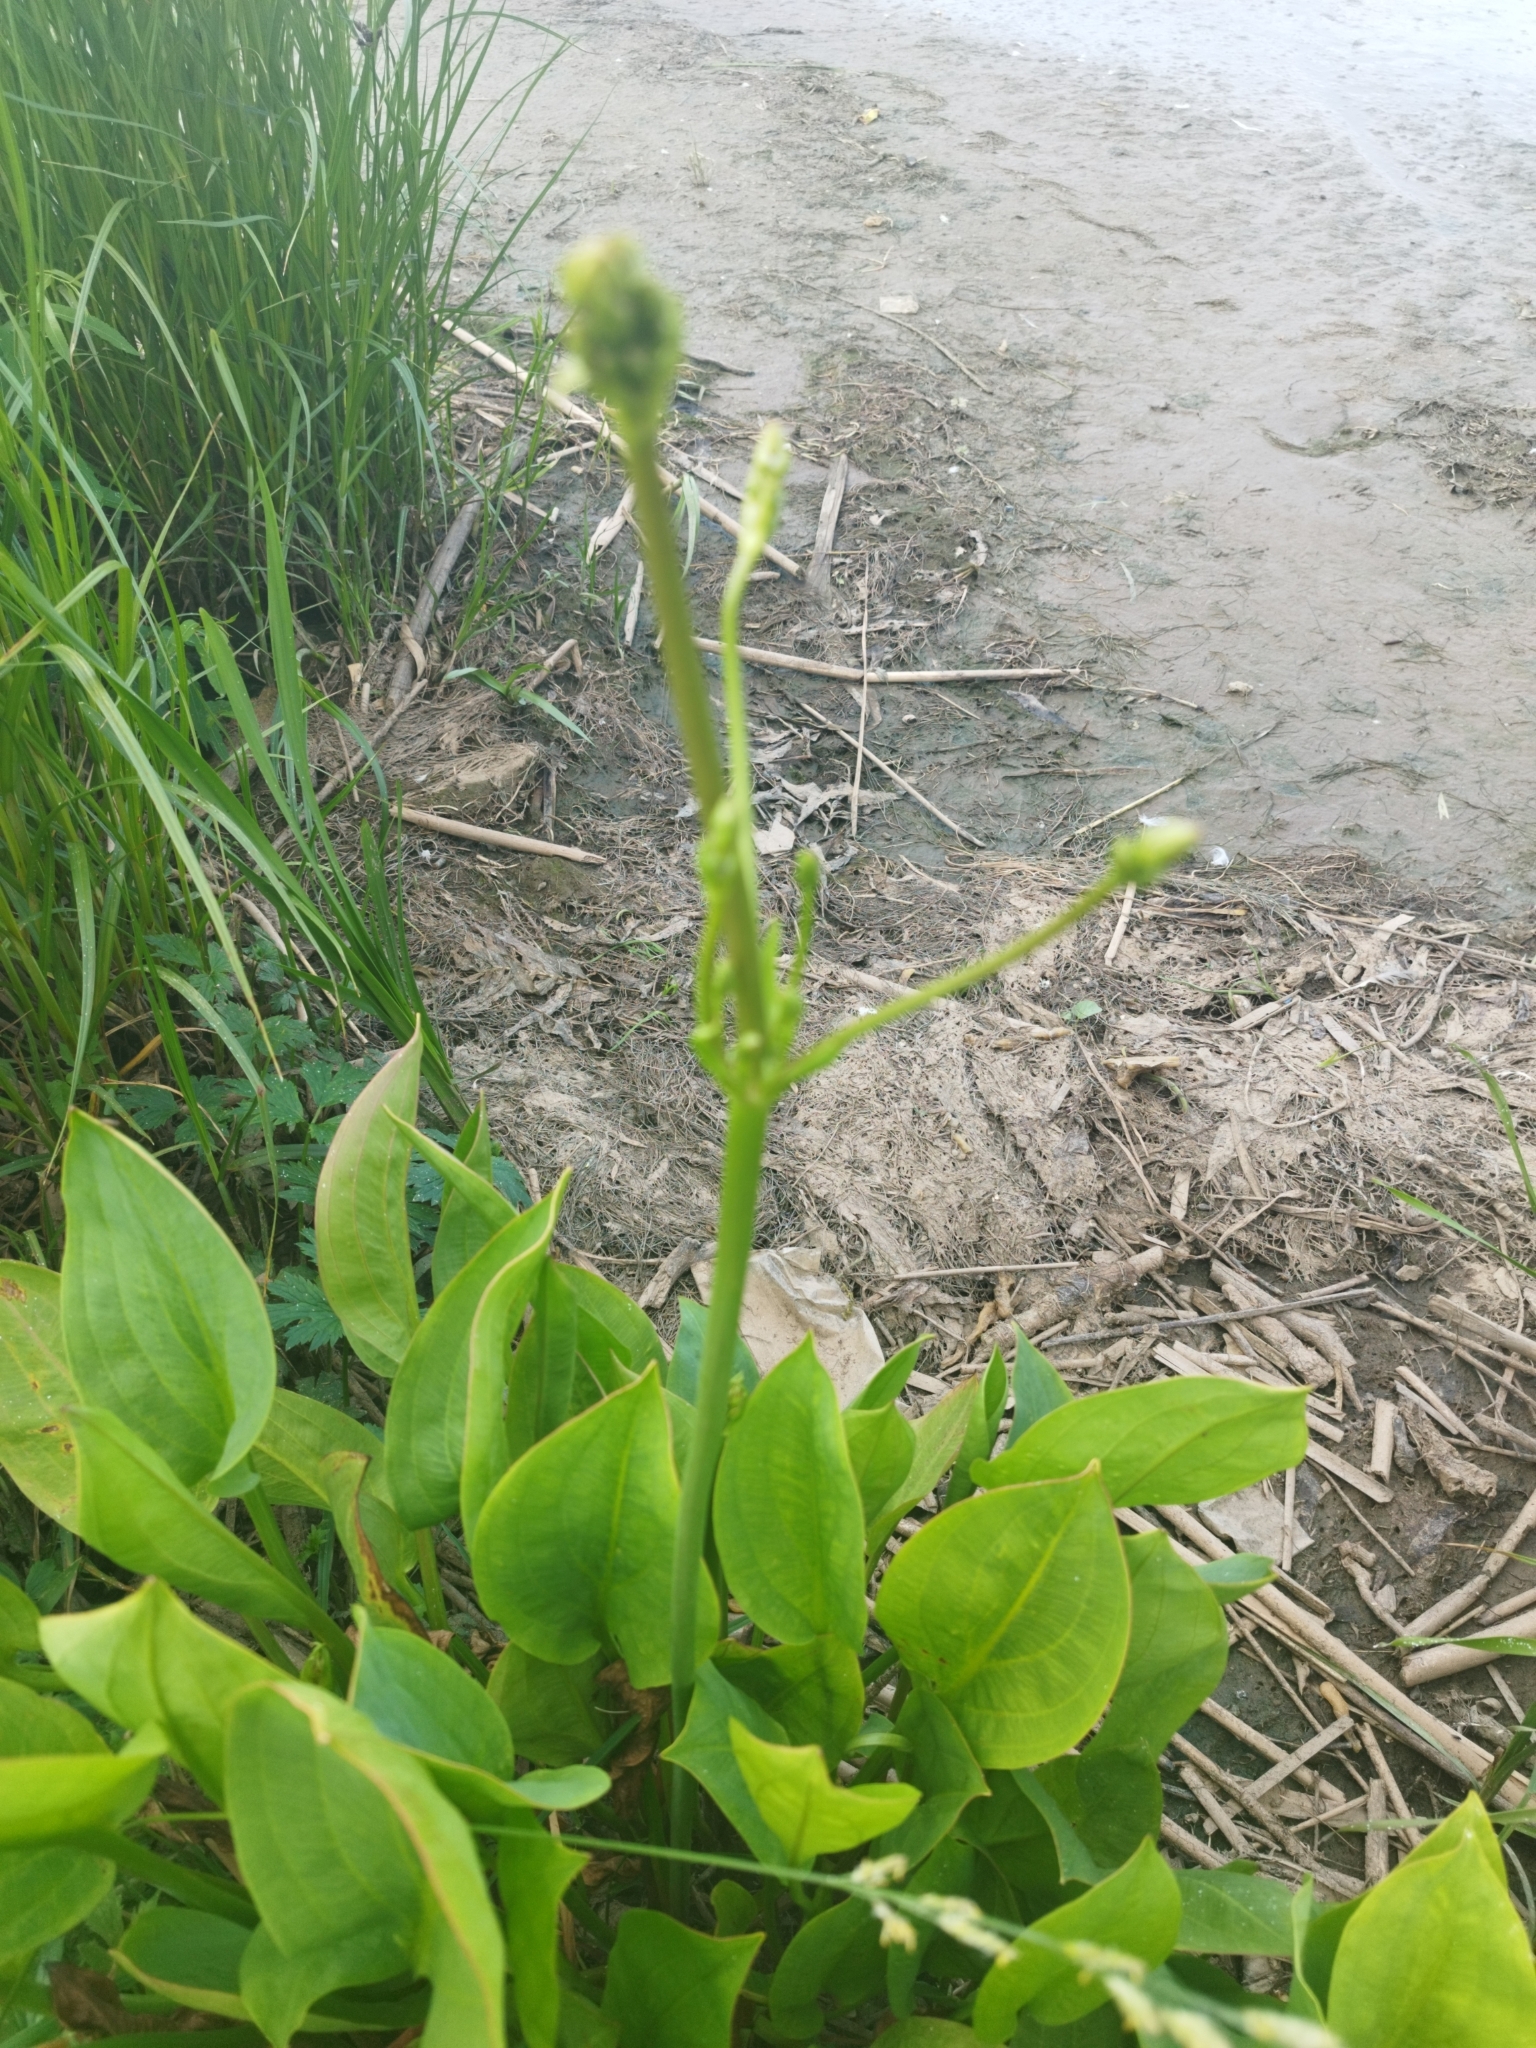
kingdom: Plantae
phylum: Tracheophyta
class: Liliopsida
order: Alismatales
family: Alismataceae
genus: Alisma
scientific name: Alisma plantago-aquatica
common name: Water-plantain
